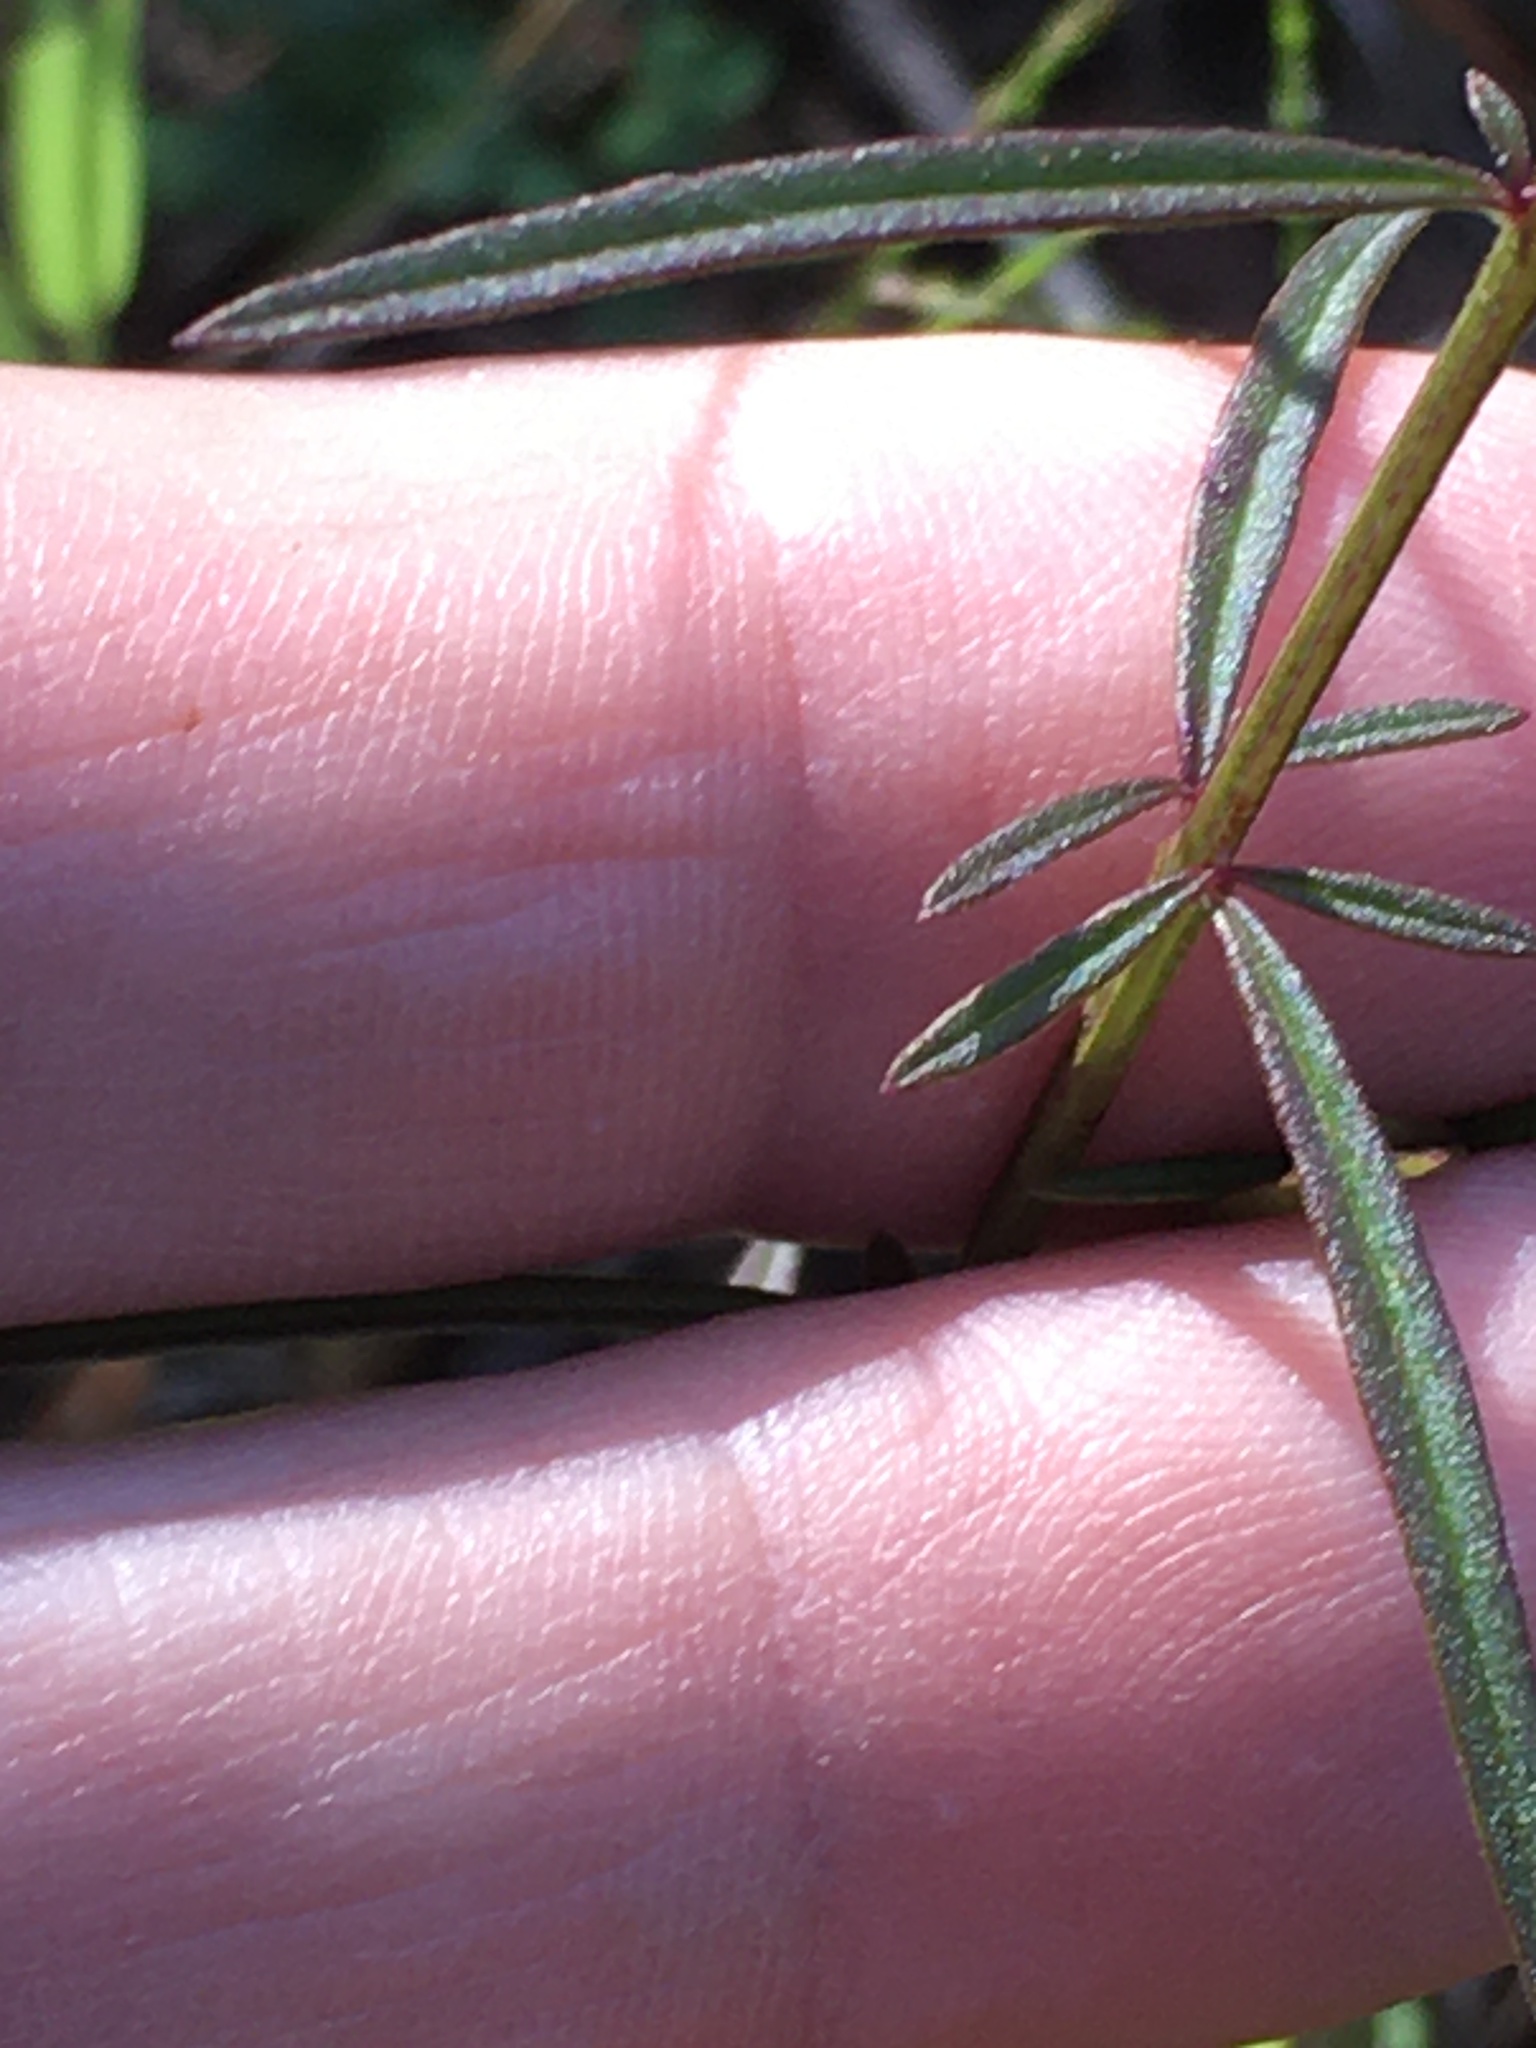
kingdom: Plantae
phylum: Tracheophyta
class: Magnoliopsida
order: Lamiales
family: Orobanchaceae
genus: Agalinis
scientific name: Agalinis purpurea
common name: Purple false foxglove
